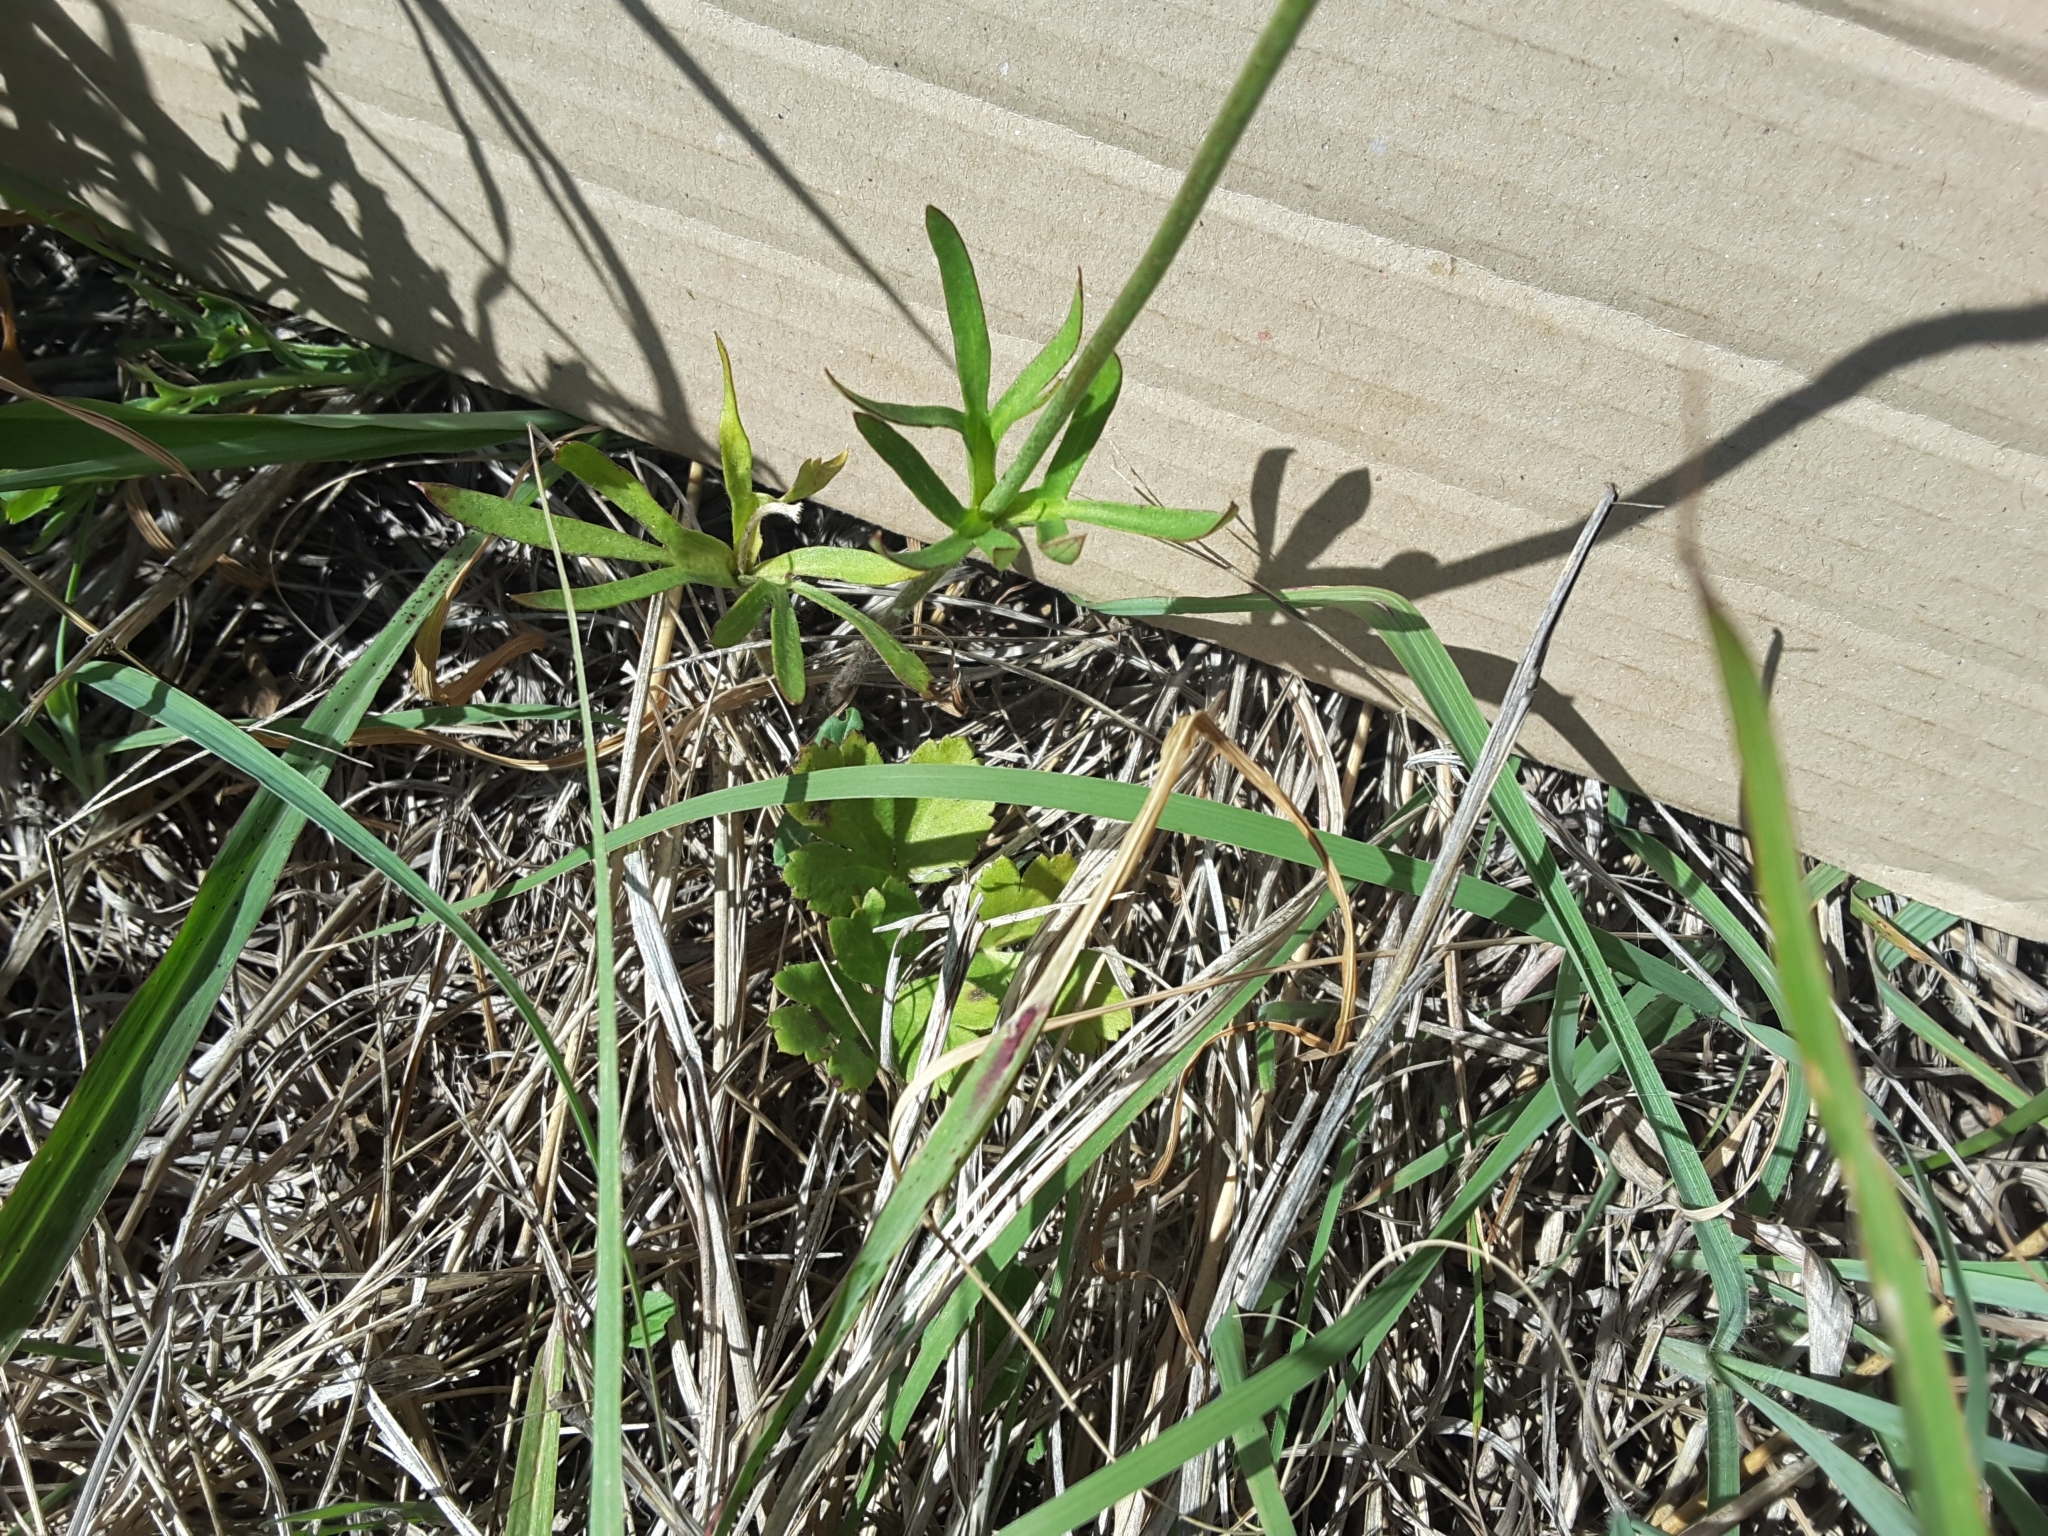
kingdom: Plantae
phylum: Tracheophyta
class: Magnoliopsida
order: Ranunculales
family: Ranunculaceae
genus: Anemone
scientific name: Anemone berlandieri
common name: Ten-petal anemone
